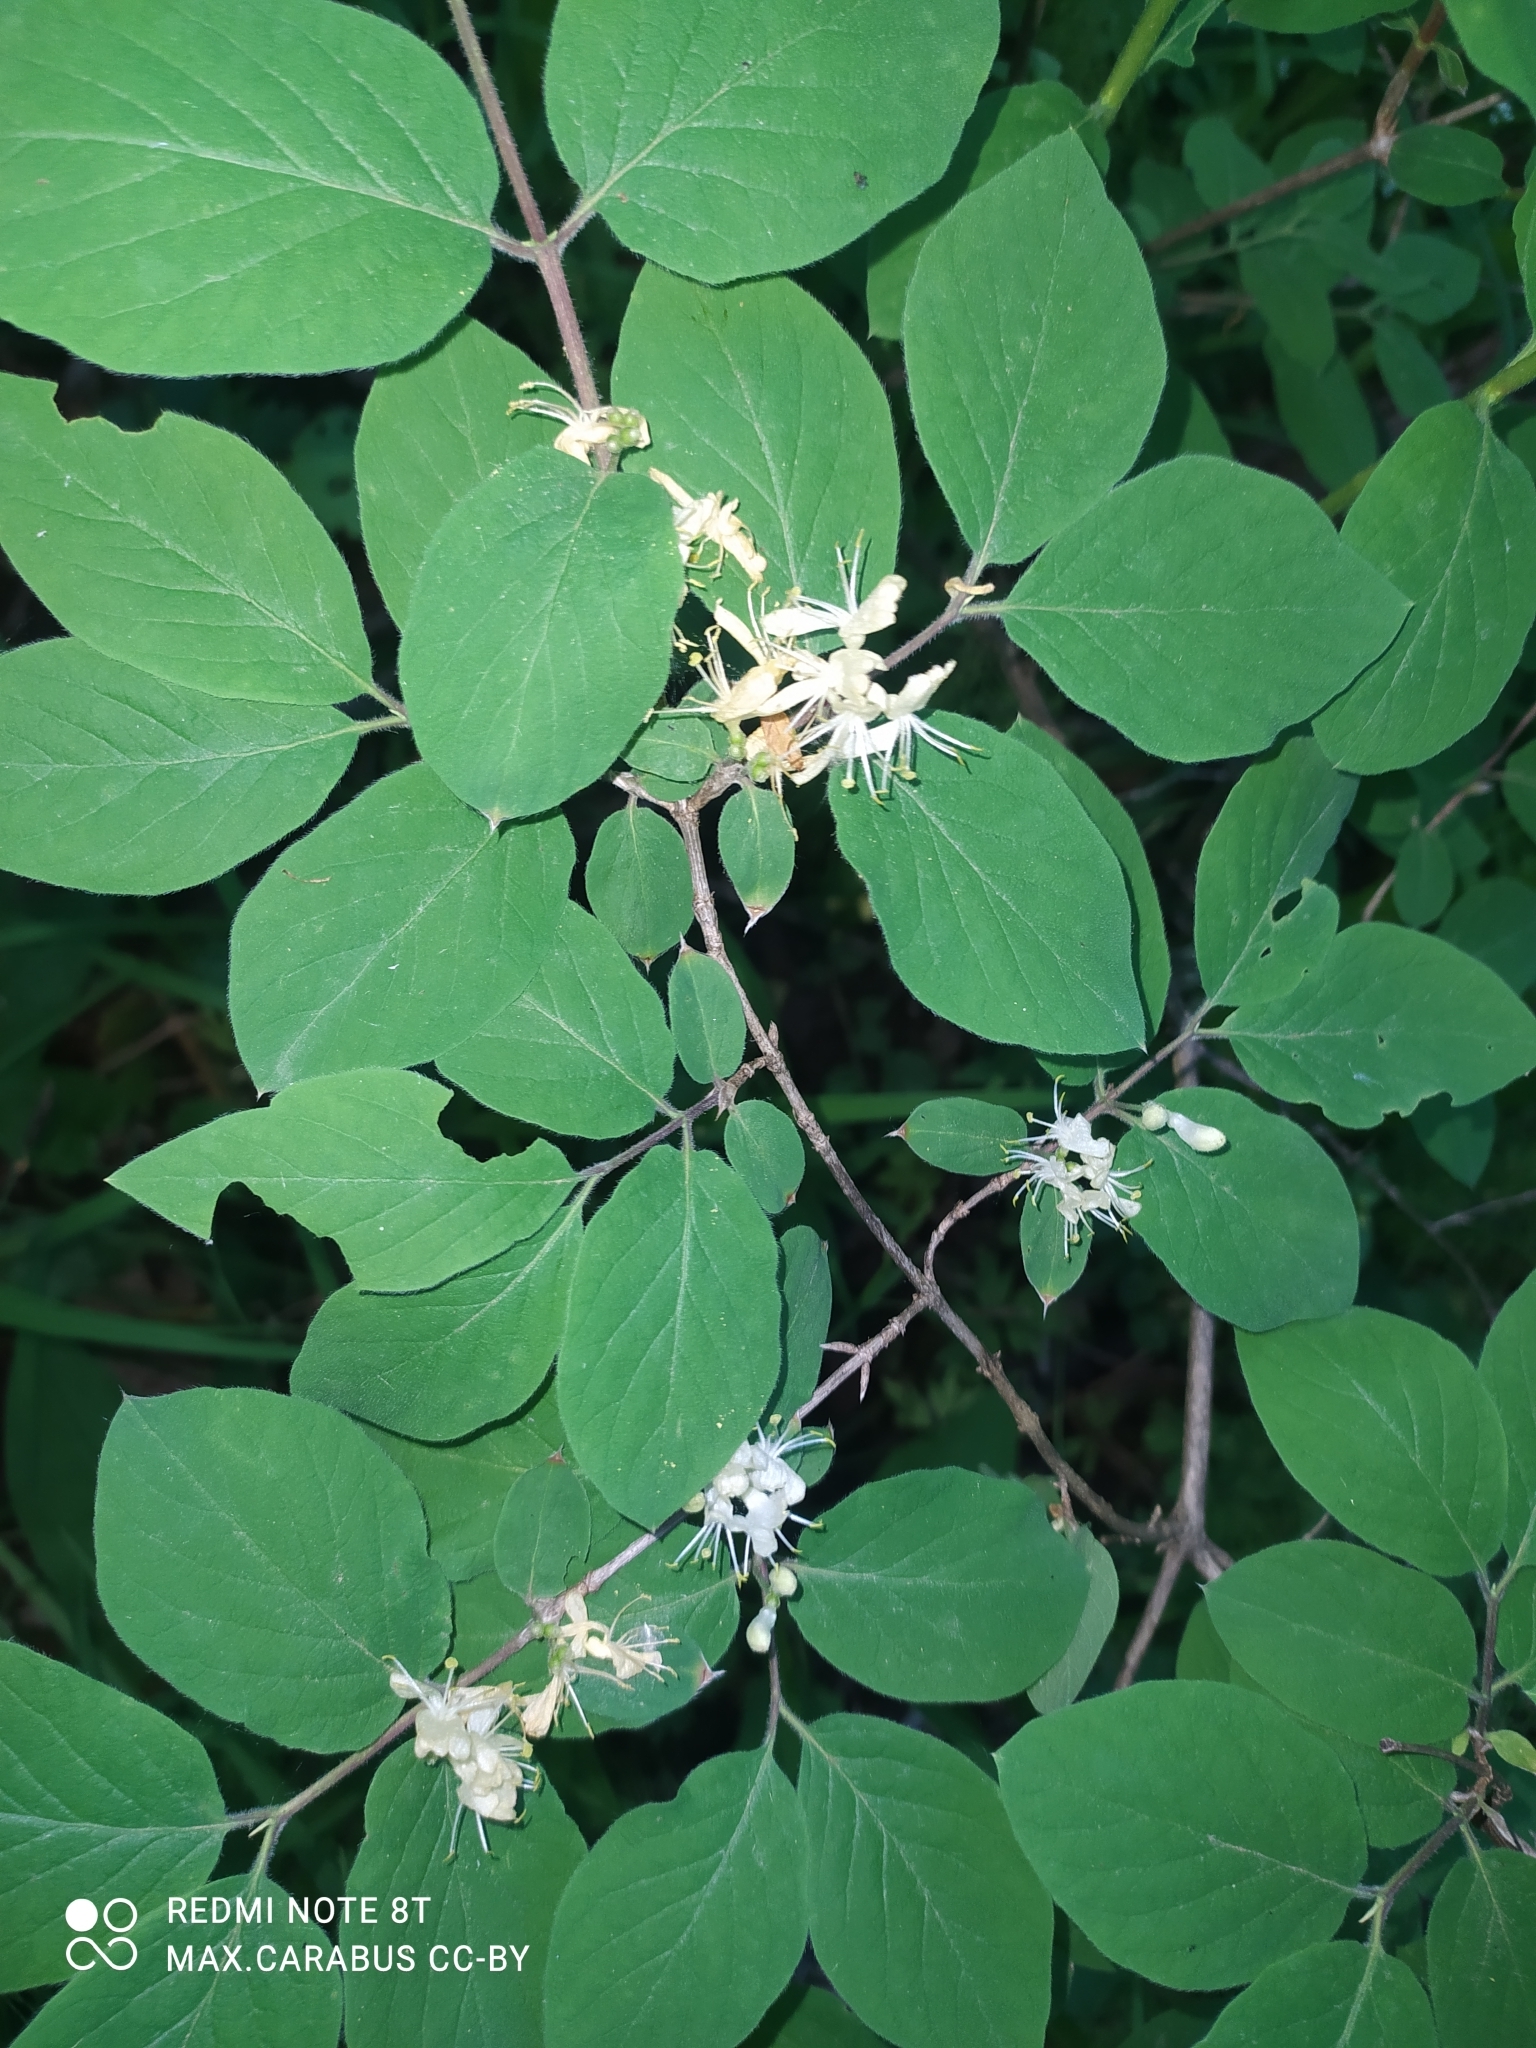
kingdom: Plantae
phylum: Tracheophyta
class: Magnoliopsida
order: Dipsacales
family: Caprifoliaceae
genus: Lonicera
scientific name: Lonicera xylosteum
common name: Fly honeysuckle
